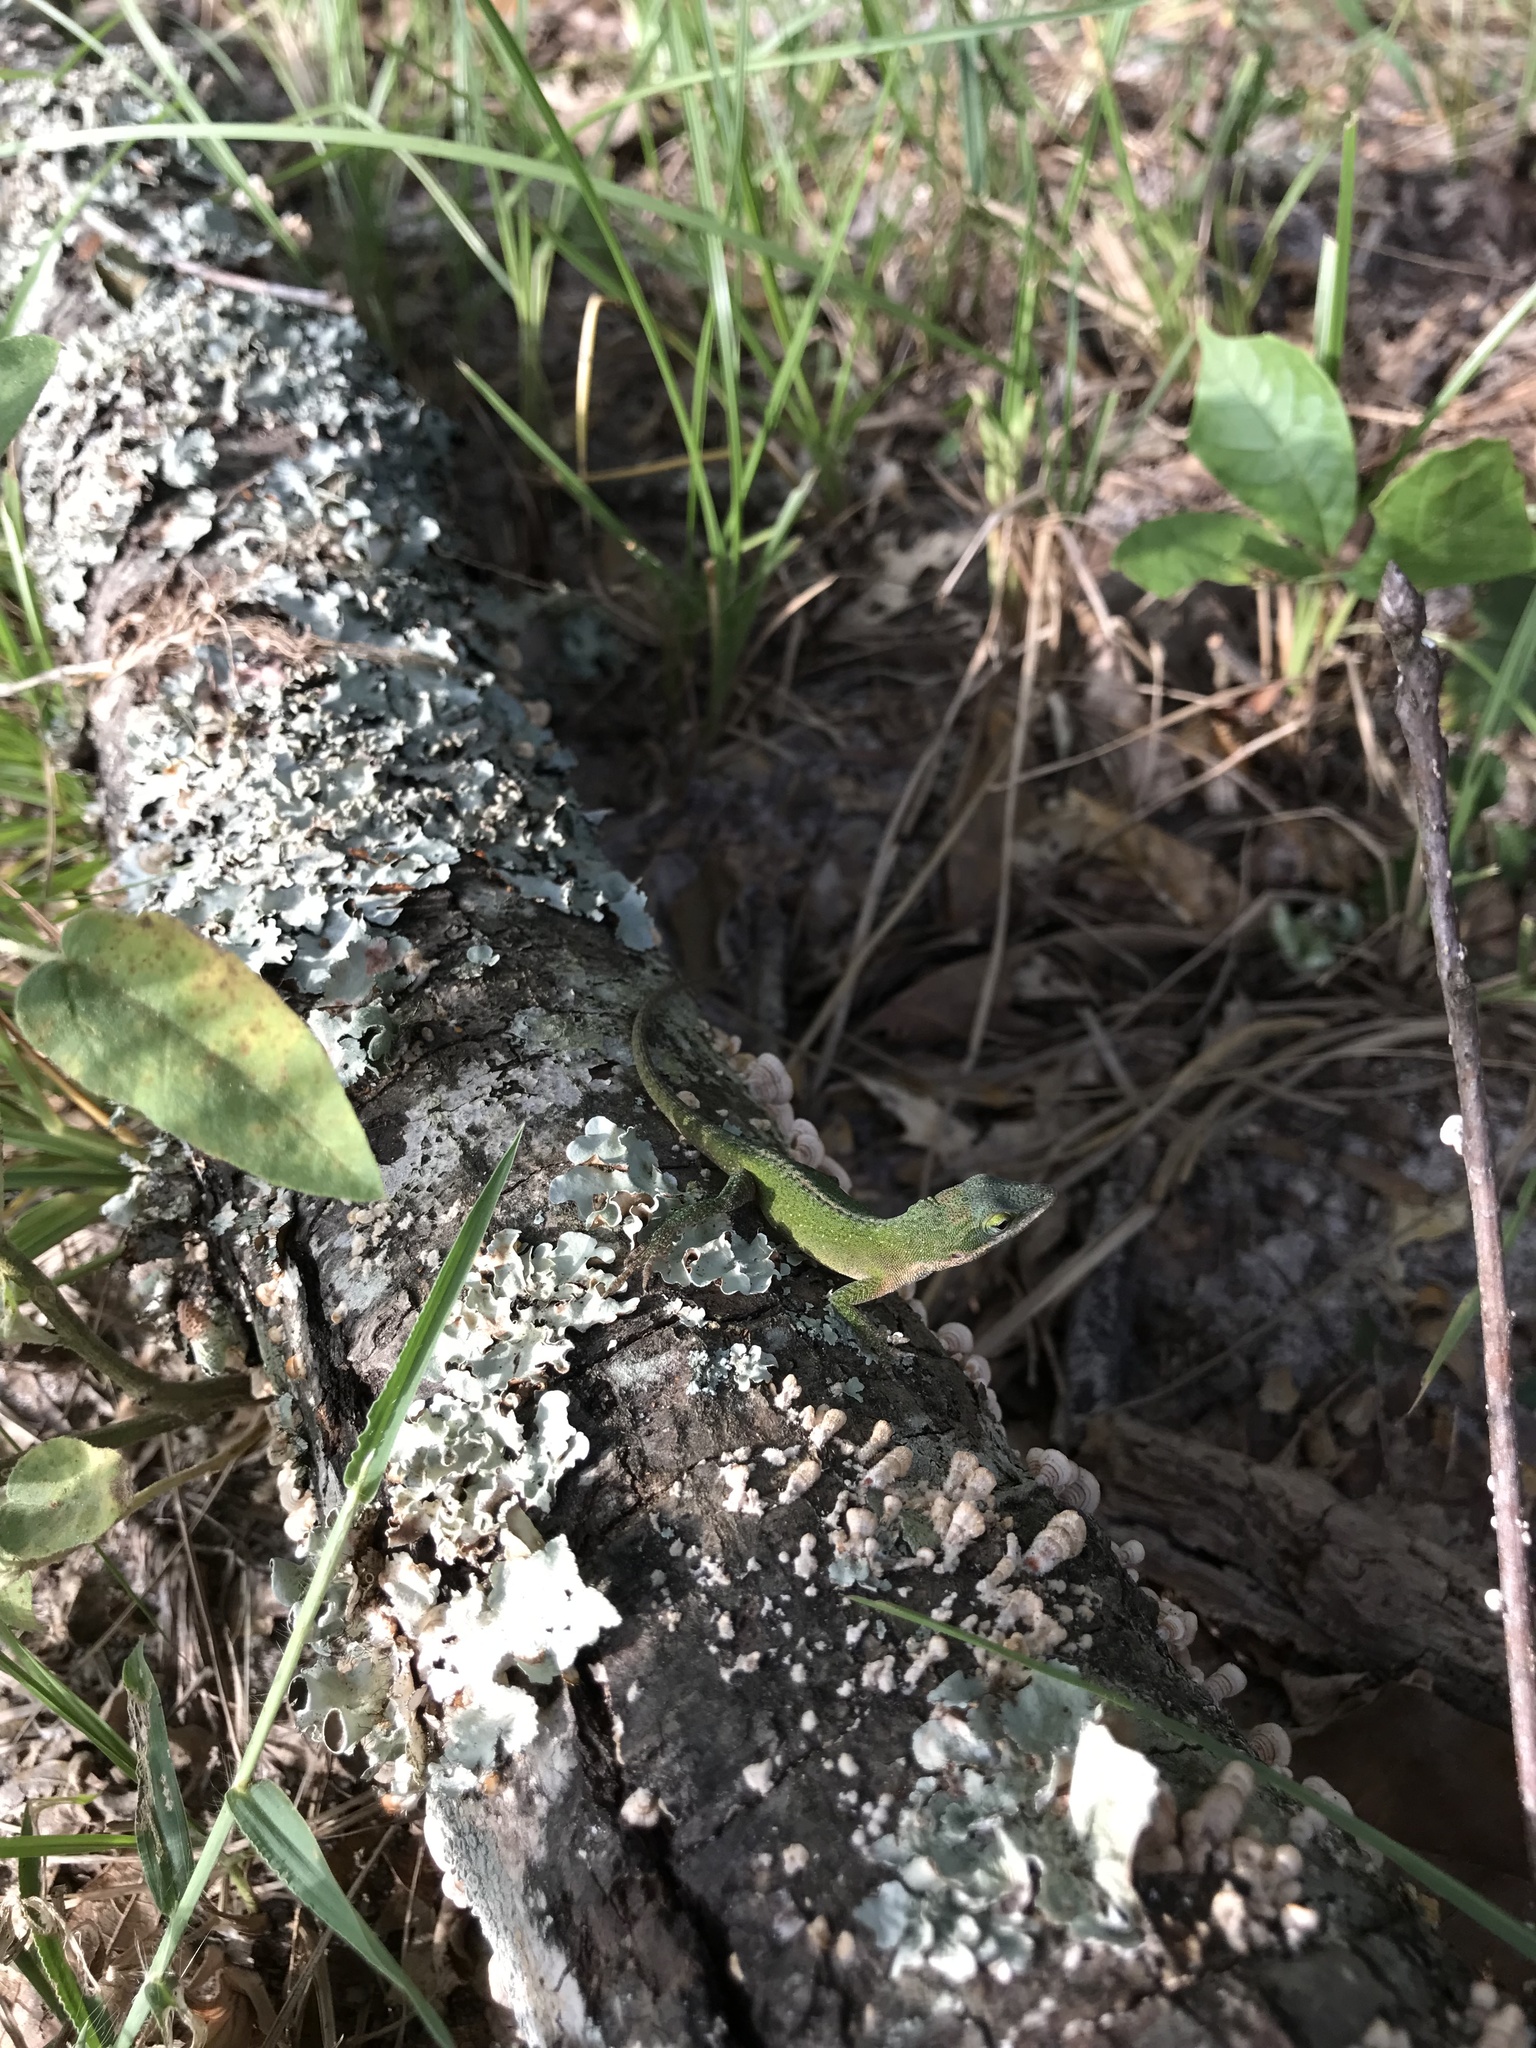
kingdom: Animalia
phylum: Chordata
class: Squamata
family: Dactyloidae
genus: Anolis
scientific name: Anolis carolinensis
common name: Green anole
